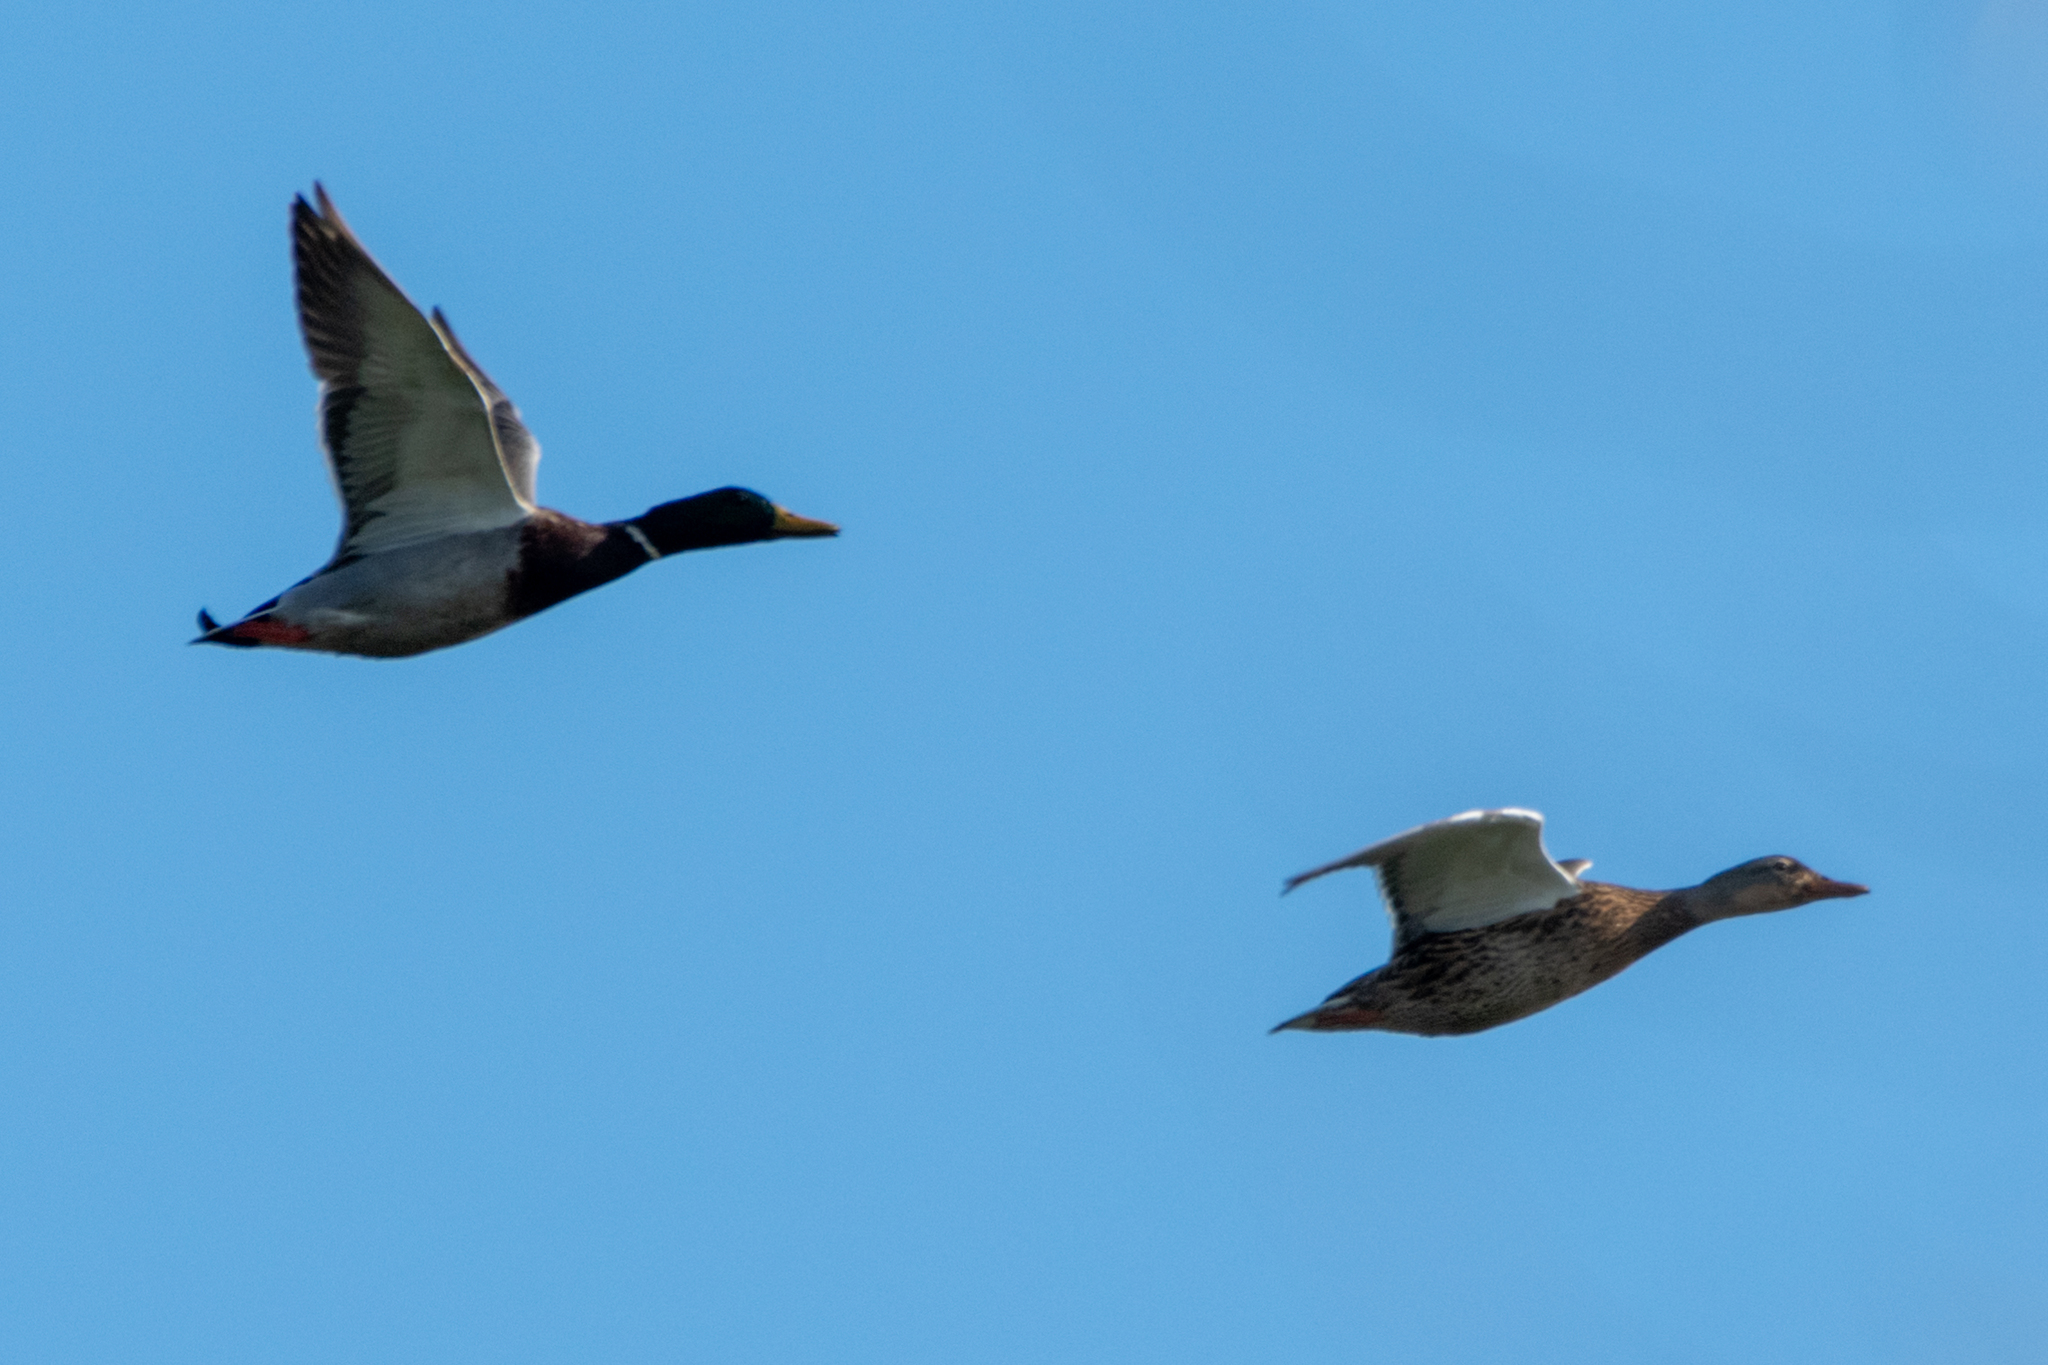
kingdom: Animalia
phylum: Chordata
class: Aves
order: Anseriformes
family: Anatidae
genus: Anas
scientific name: Anas platyrhynchos
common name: Mallard
